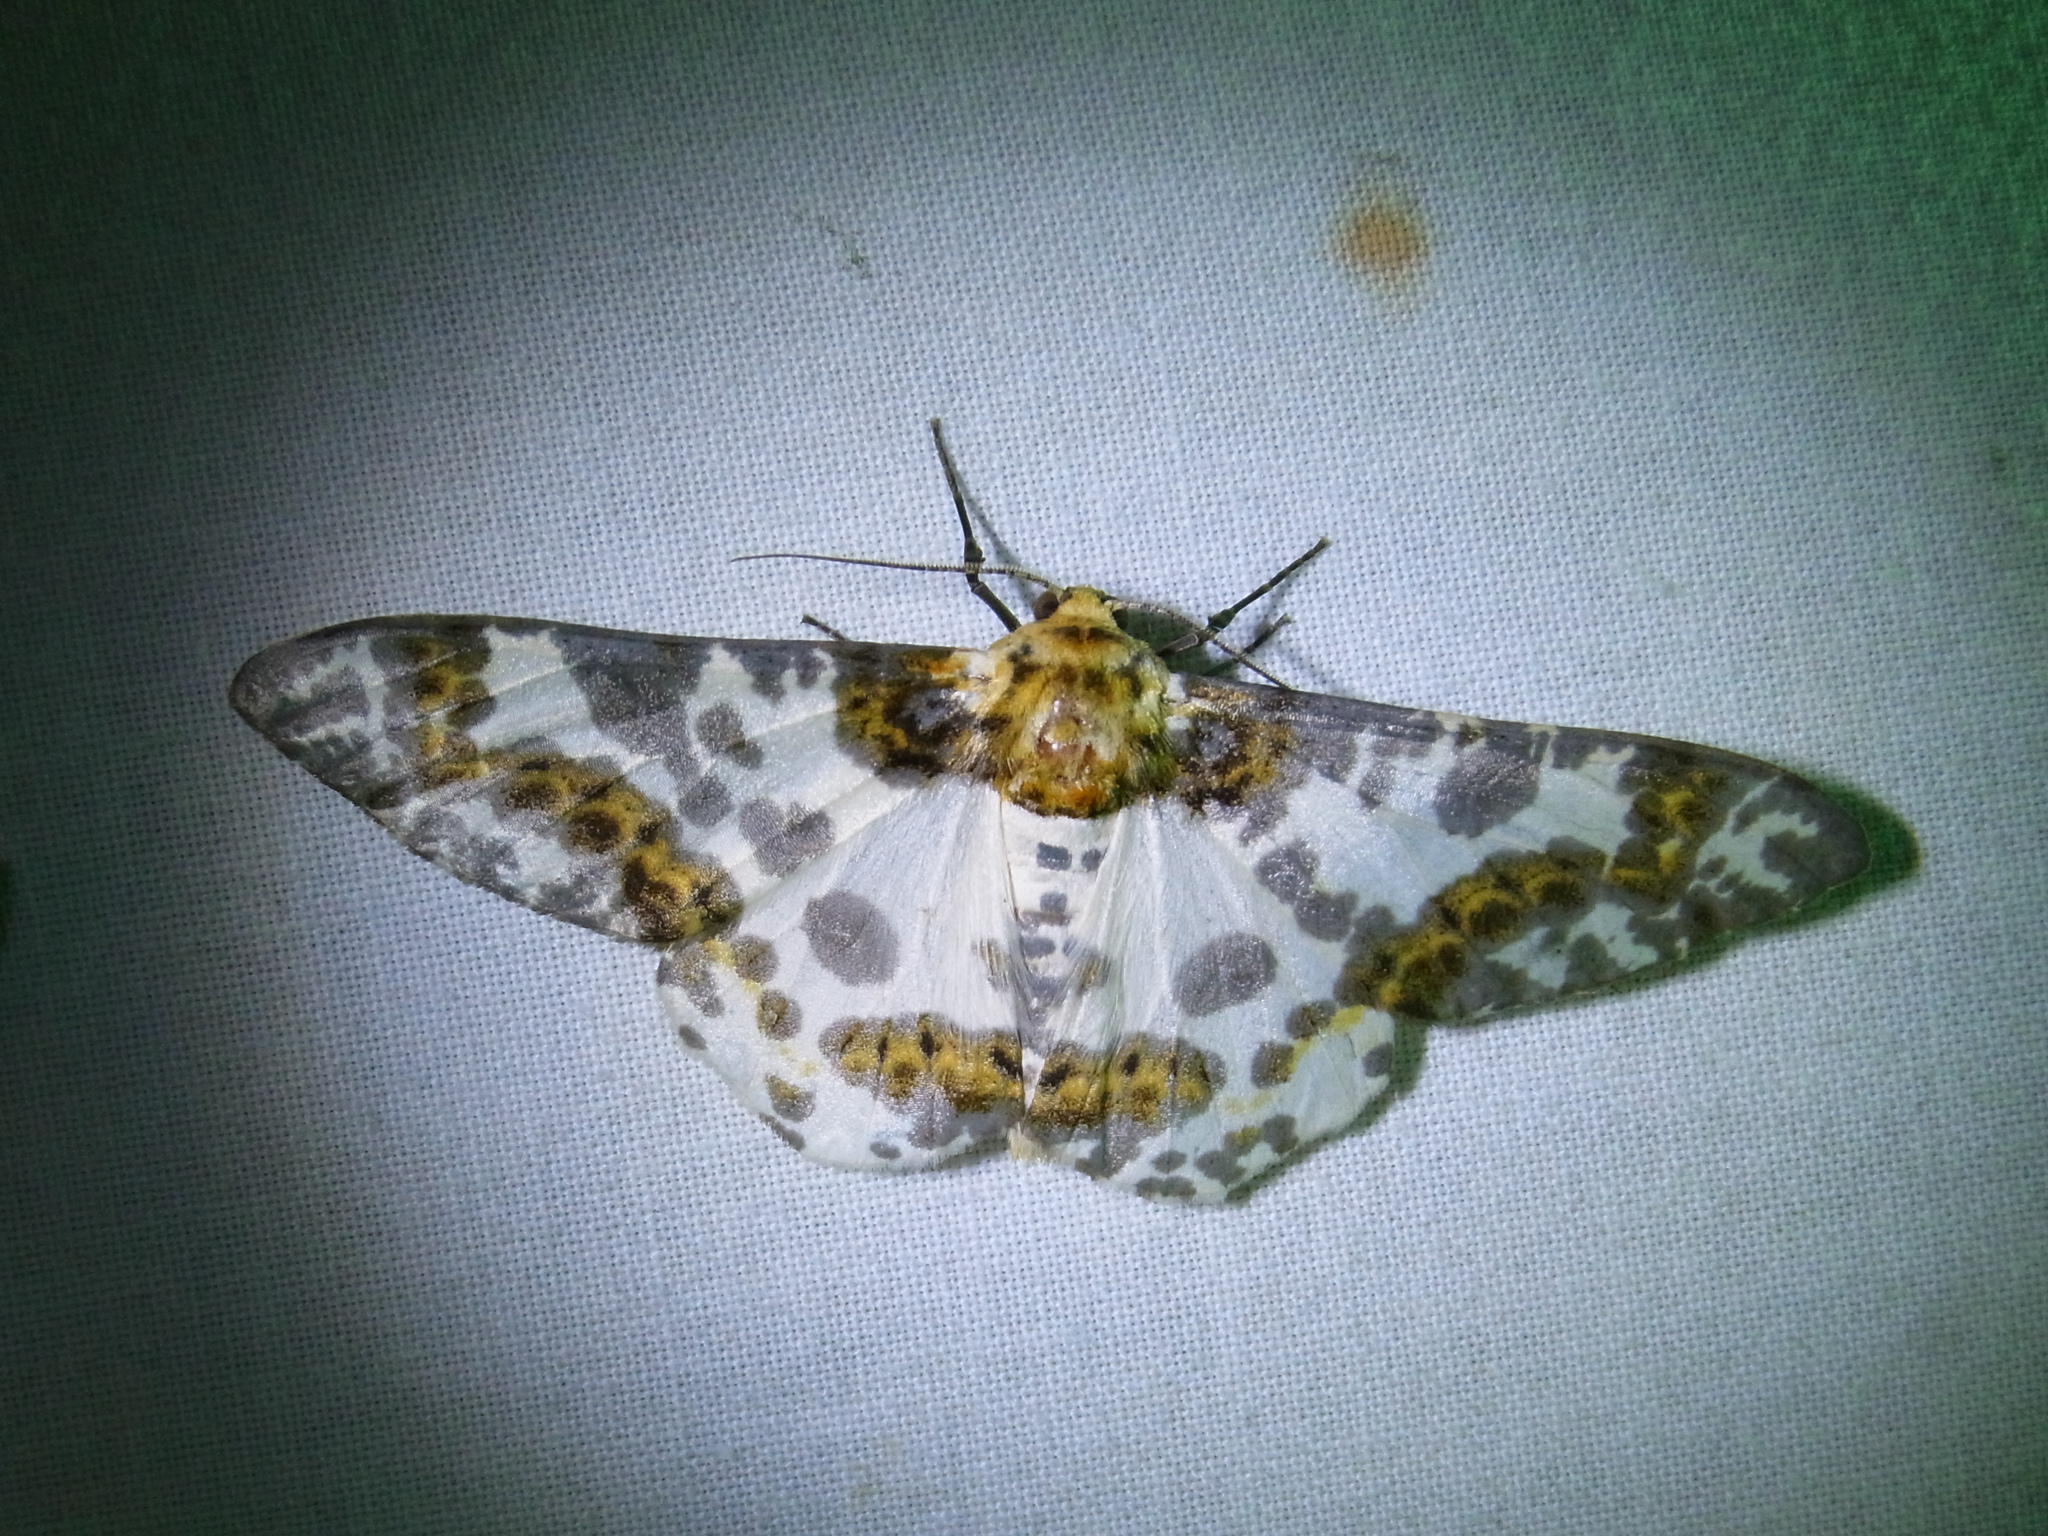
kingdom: Animalia
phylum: Arthropoda
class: Insecta
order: Lepidoptera
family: Geometridae
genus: Biston
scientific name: Biston panterinaria
